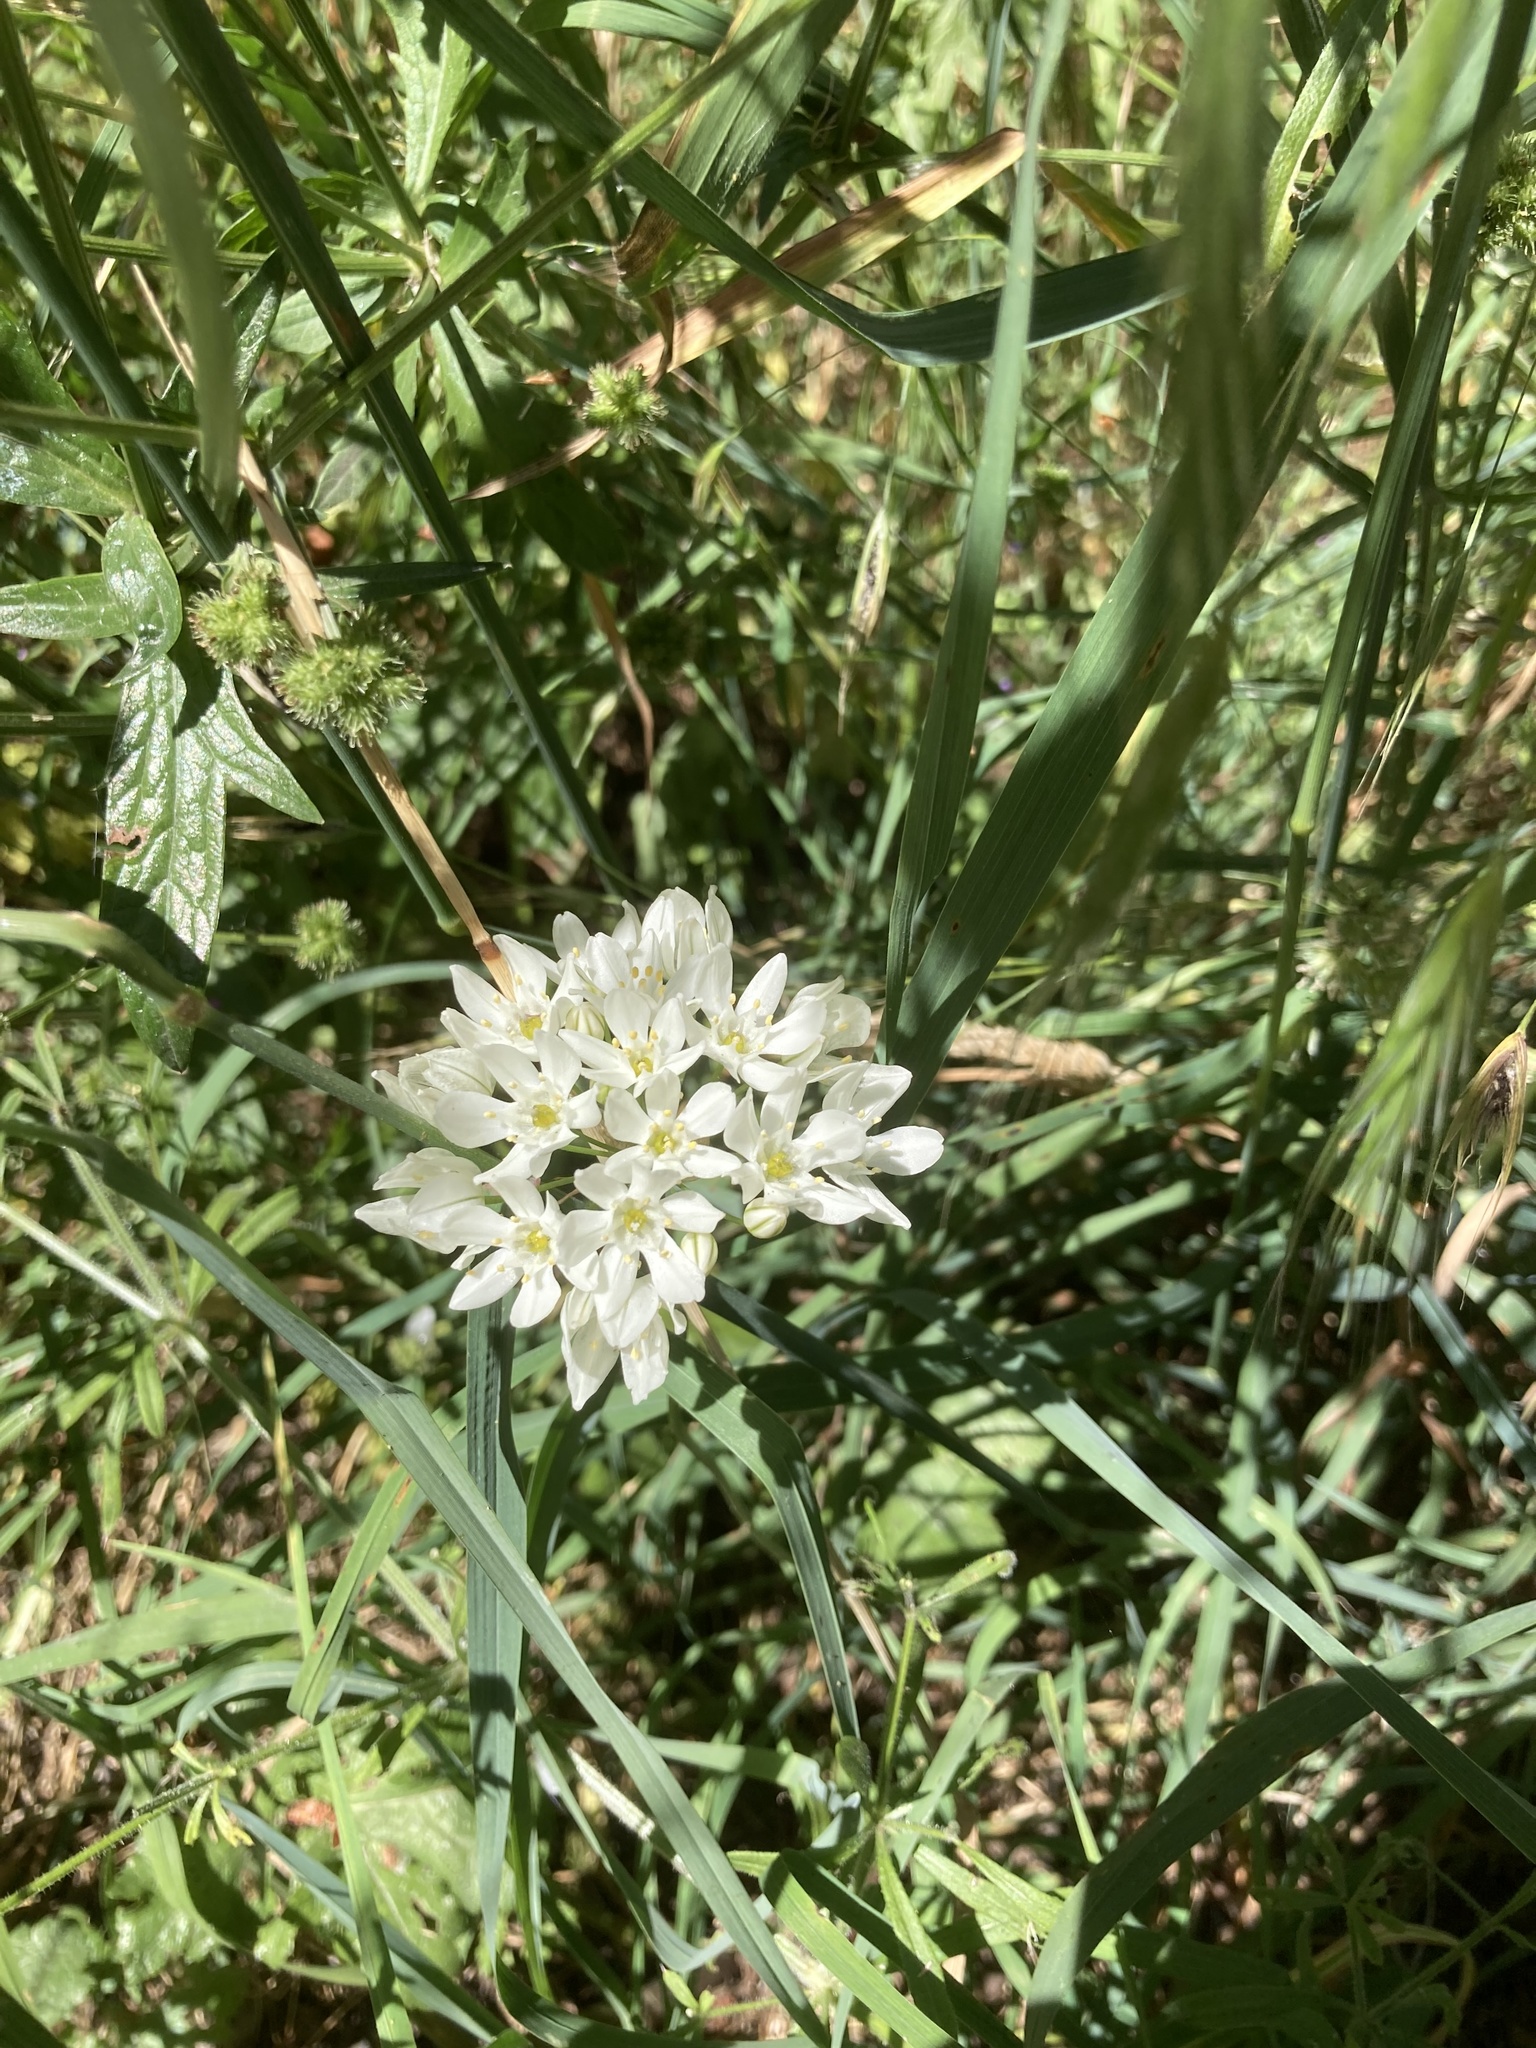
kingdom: Plantae
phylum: Tracheophyta
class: Liliopsida
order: Asparagales
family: Asparagaceae
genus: Triteleia
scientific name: Triteleia hyacinthina
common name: White brodiaea
